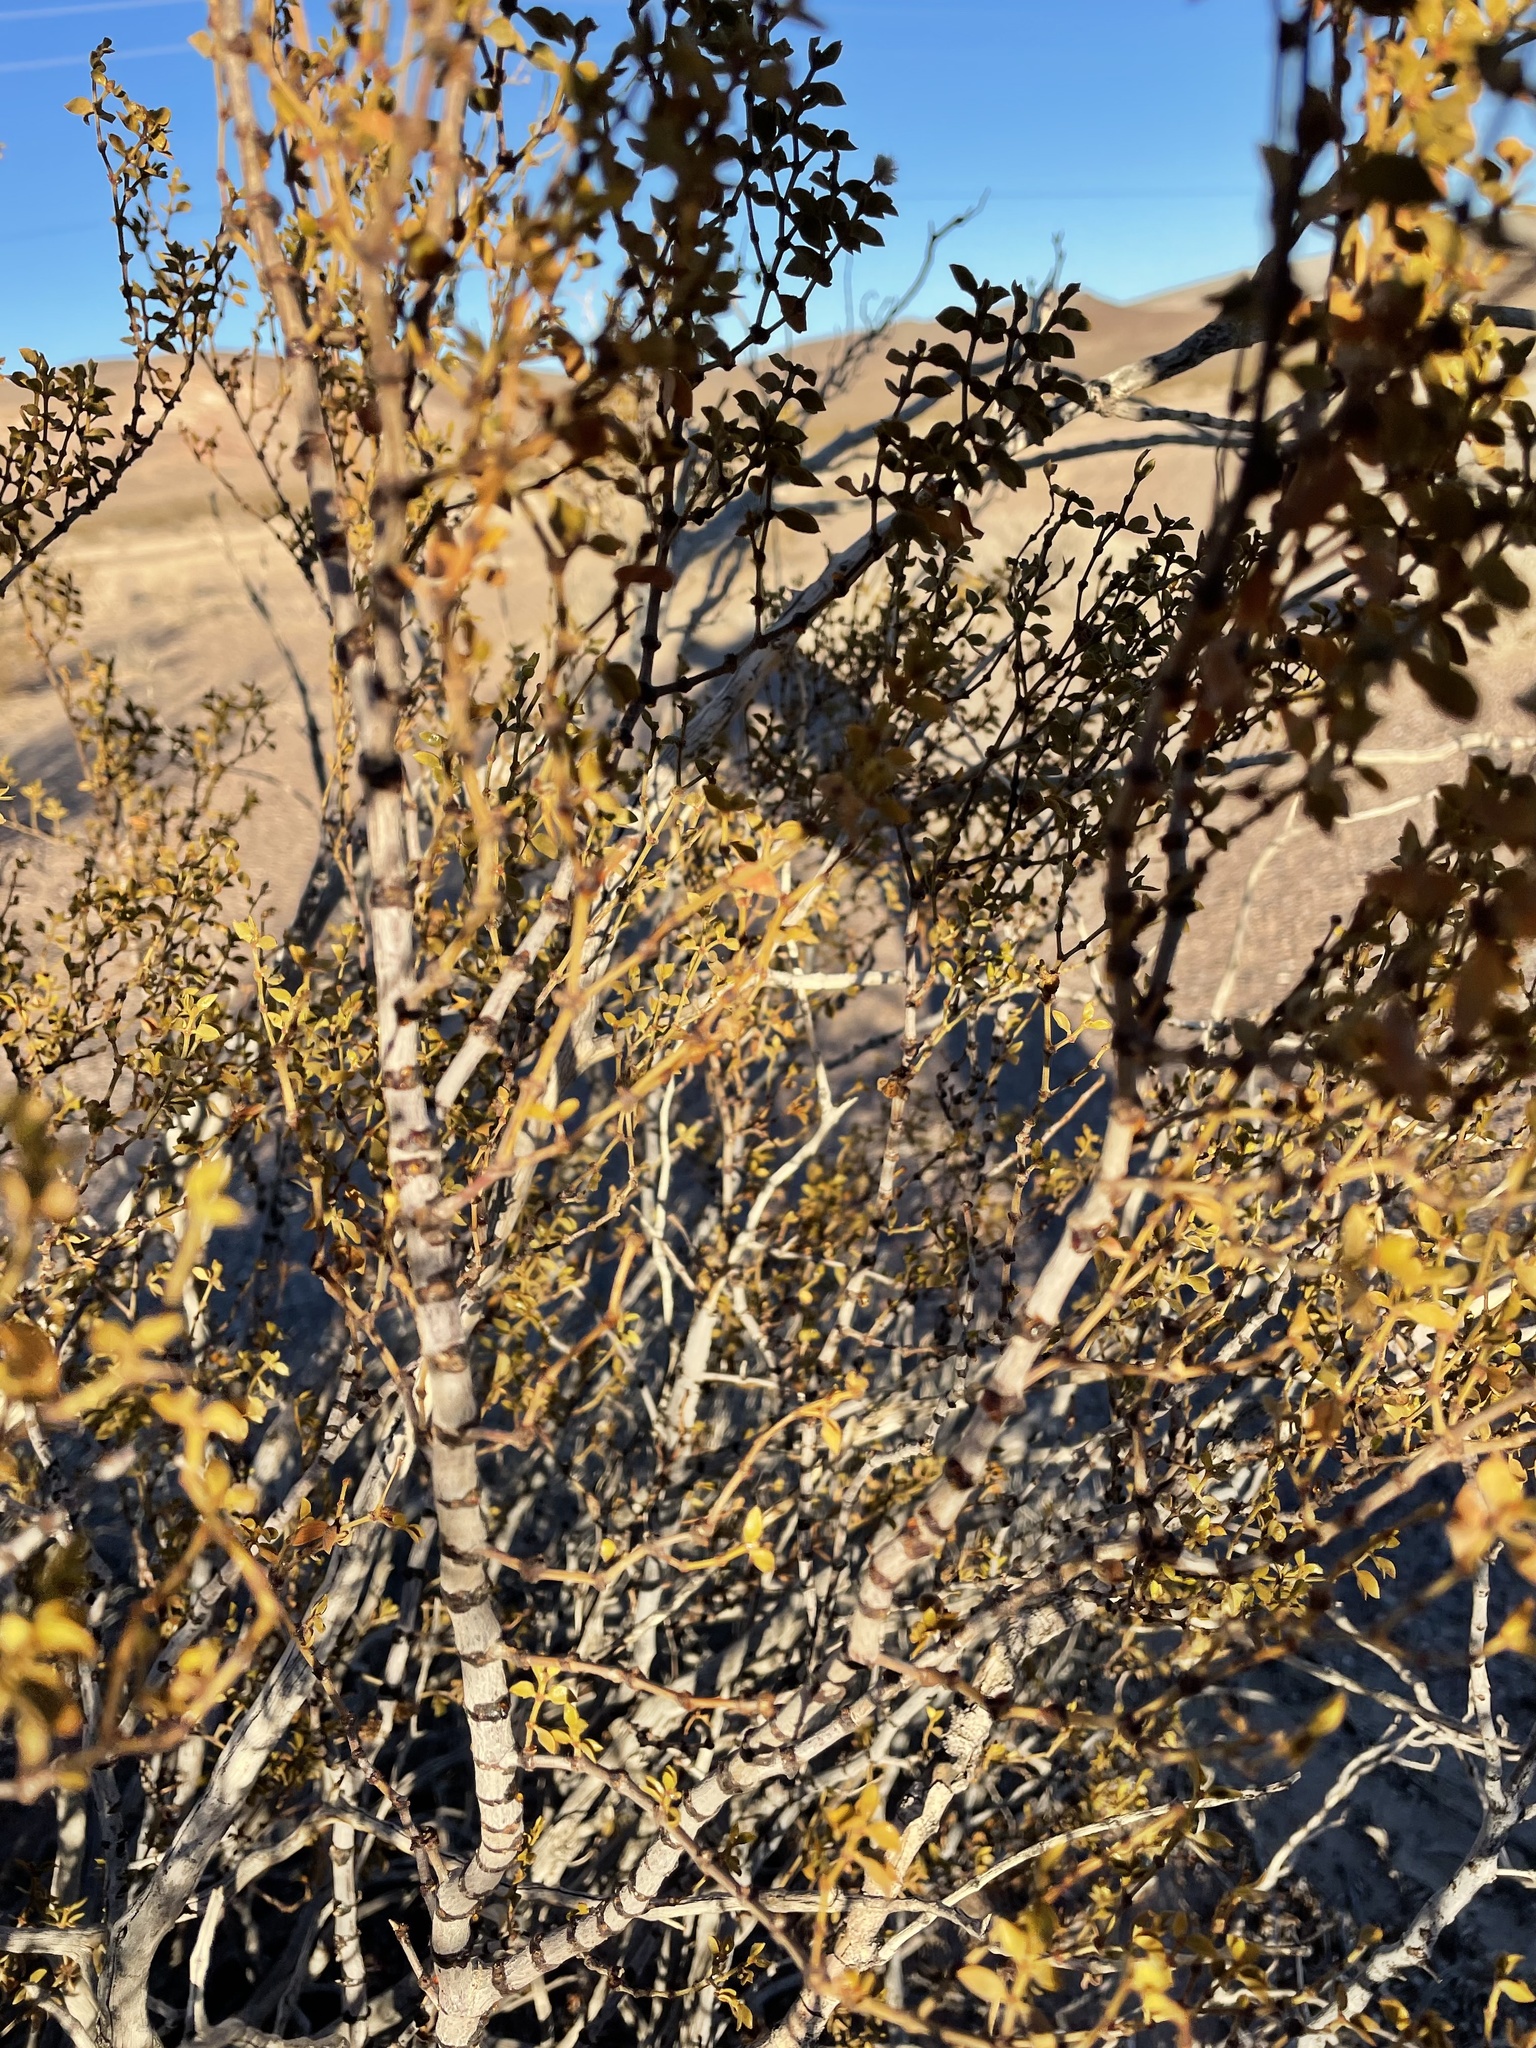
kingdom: Plantae
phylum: Tracheophyta
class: Magnoliopsida
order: Zygophyllales
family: Zygophyllaceae
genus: Larrea
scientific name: Larrea tridentata
